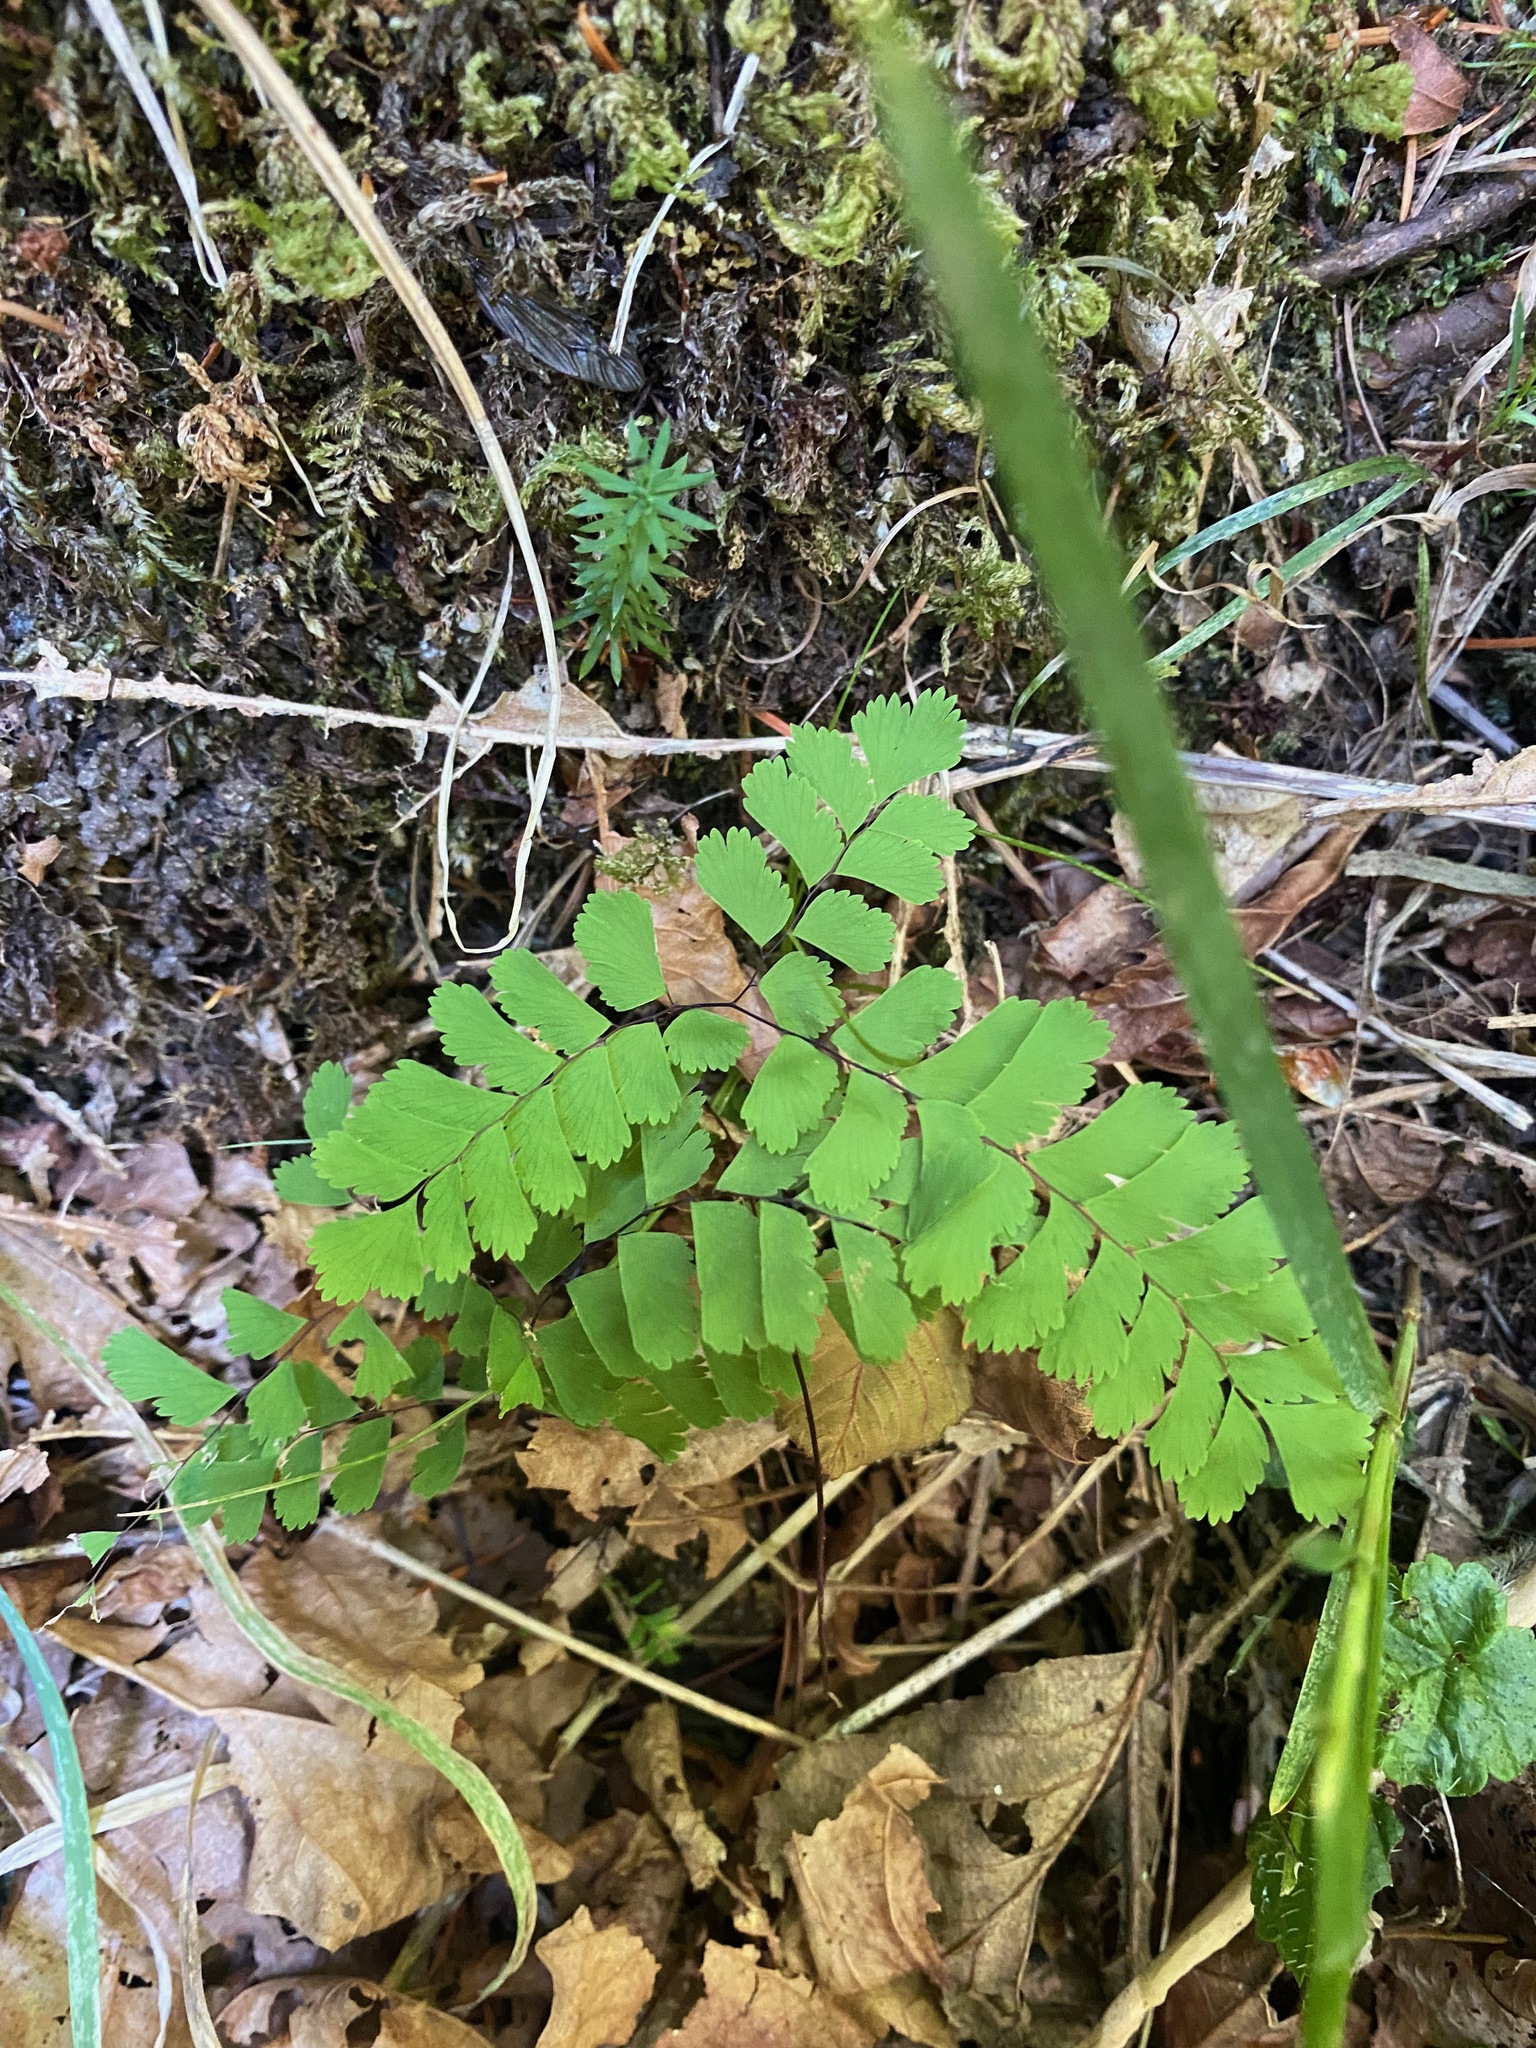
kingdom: Plantae
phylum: Tracheophyta
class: Polypodiopsida
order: Polypodiales
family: Pteridaceae
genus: Adiantum
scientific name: Adiantum aleuticum
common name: Aleutian maidenhair fern
